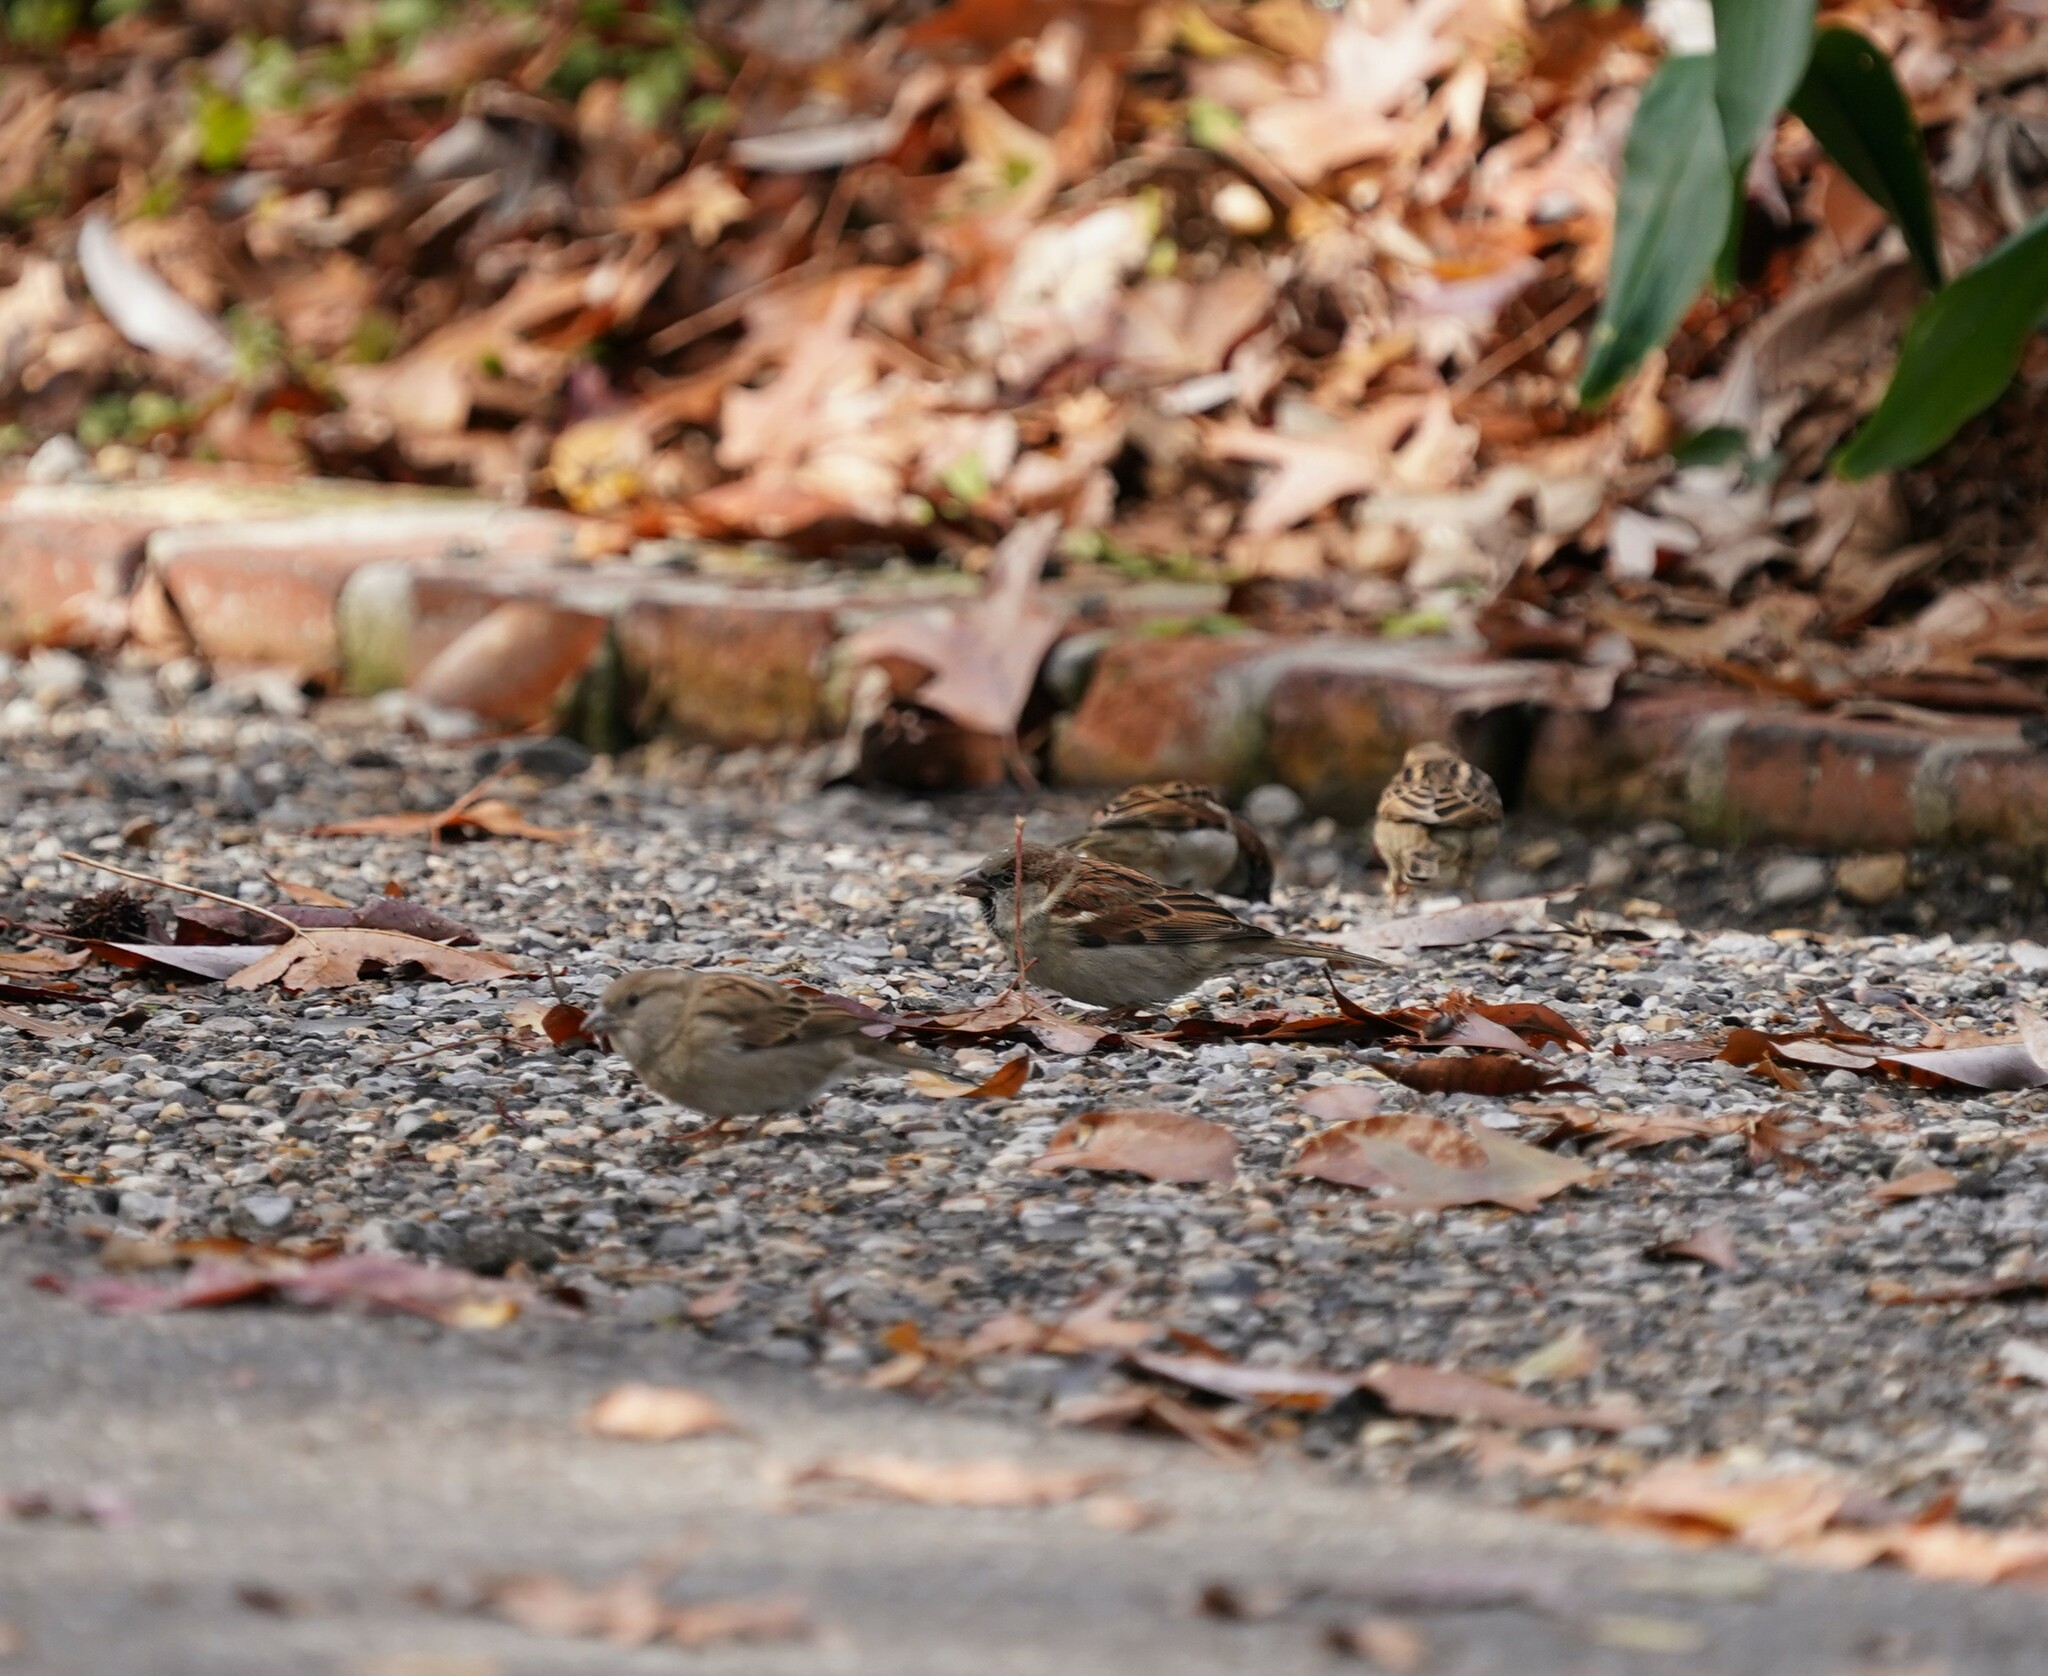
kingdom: Animalia
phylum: Chordata
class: Aves
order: Passeriformes
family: Passeridae
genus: Passer
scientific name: Passer domesticus
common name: House sparrow
